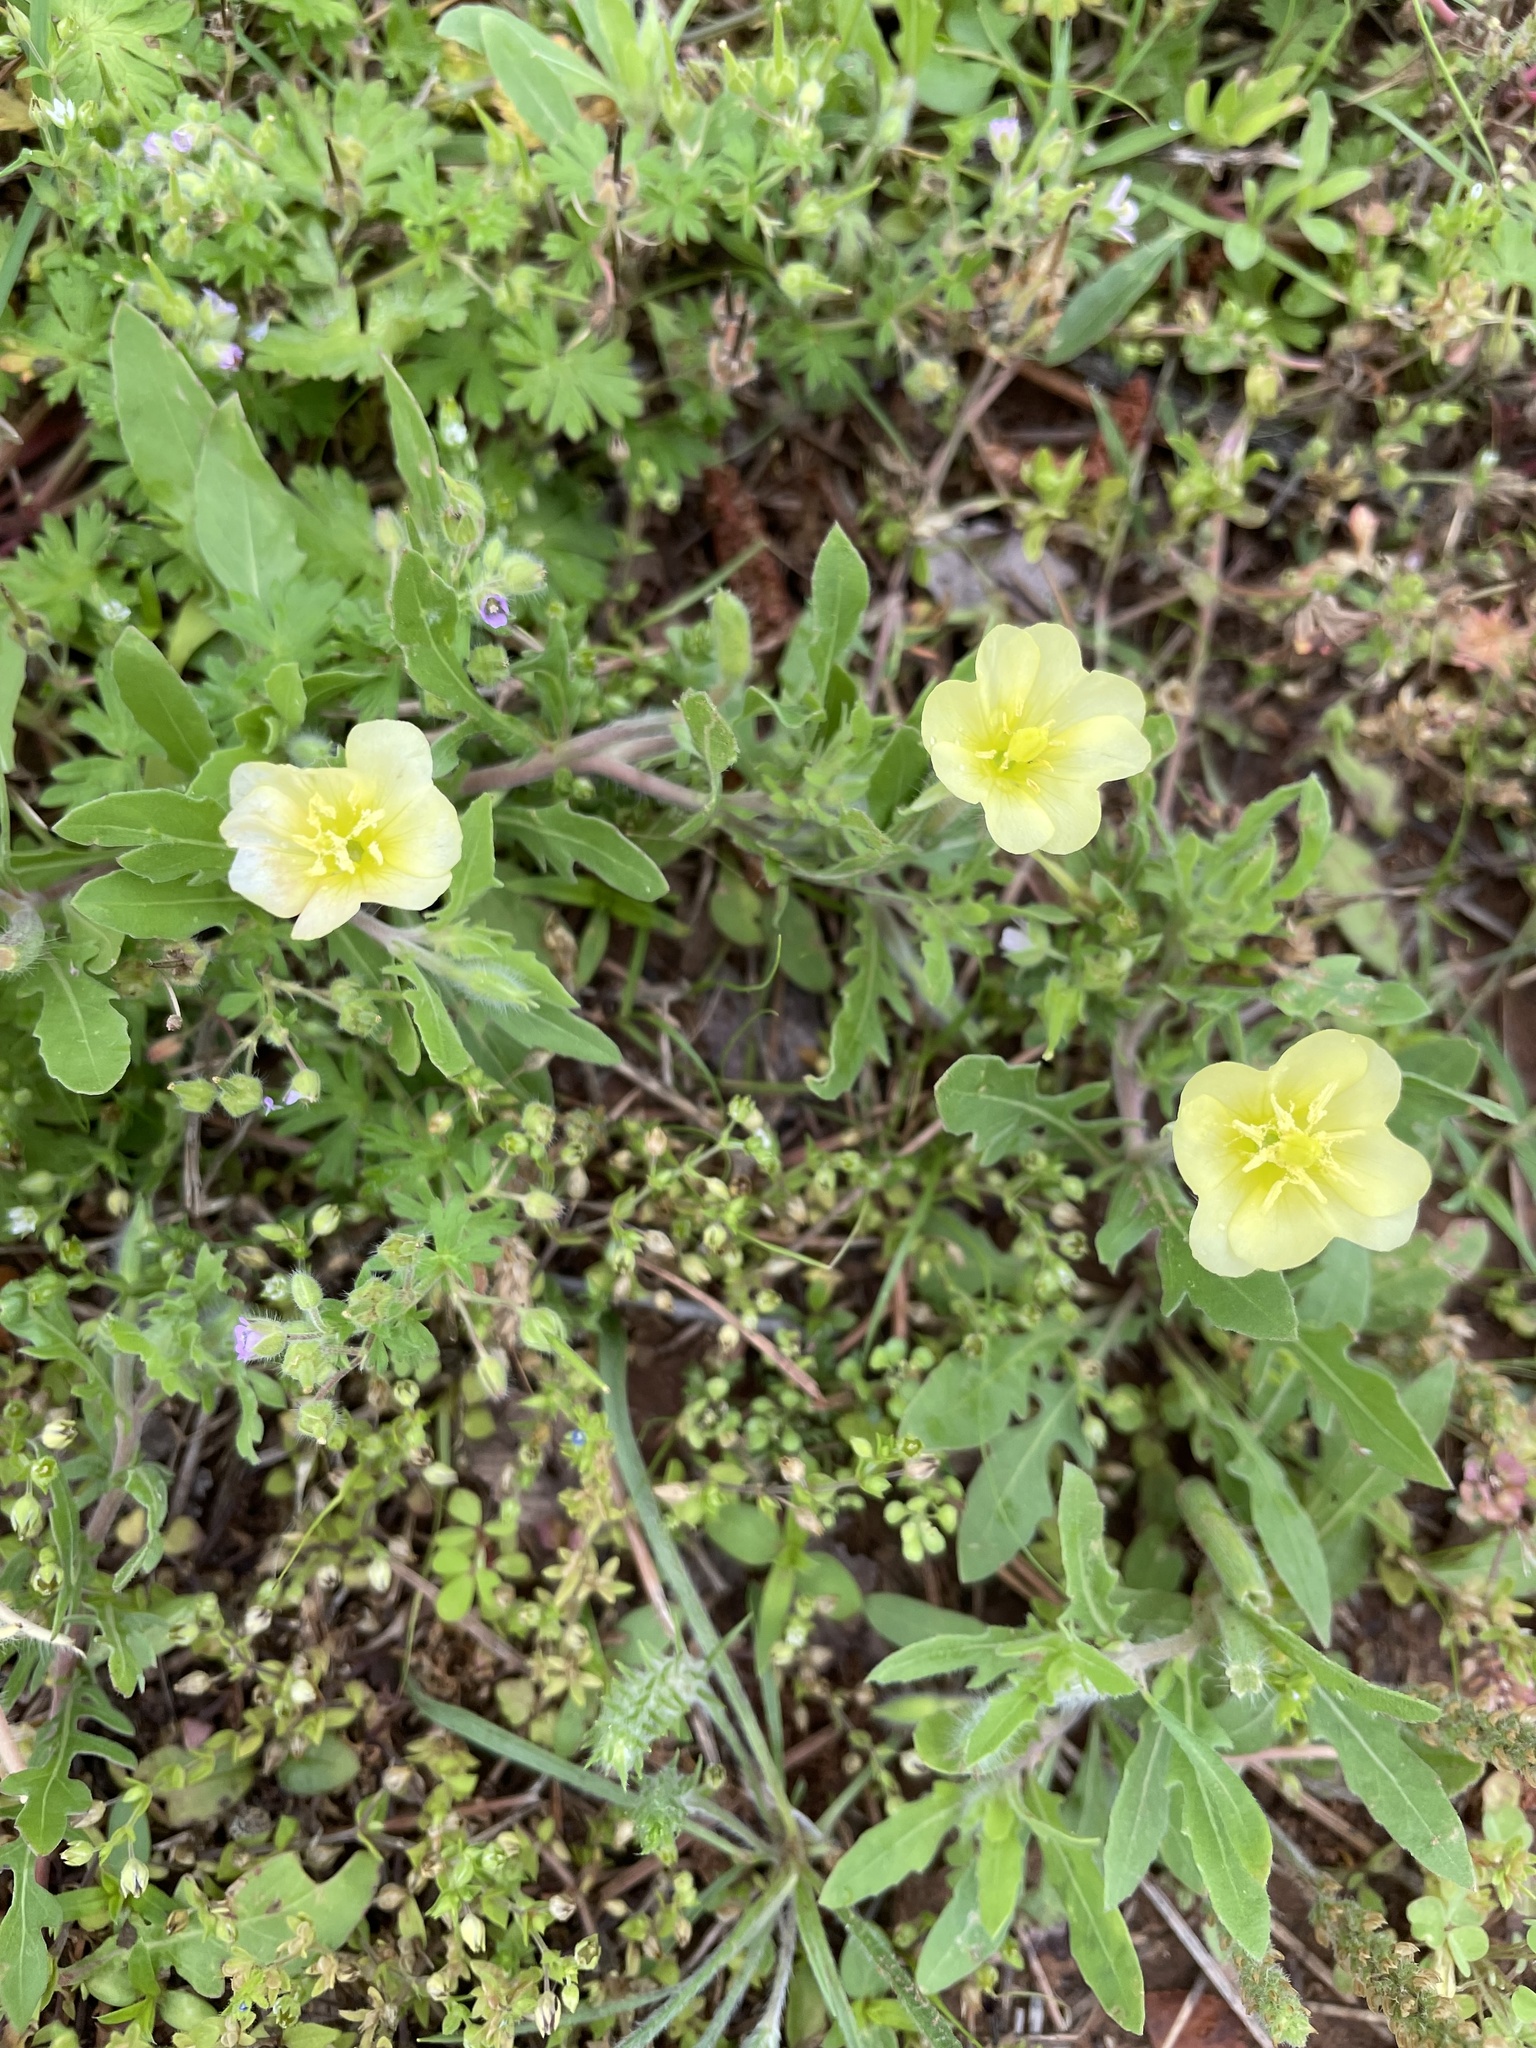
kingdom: Plantae
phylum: Tracheophyta
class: Magnoliopsida
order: Myrtales
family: Onagraceae
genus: Oenothera
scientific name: Oenothera laciniata
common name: Cut-leaved evening-primrose
